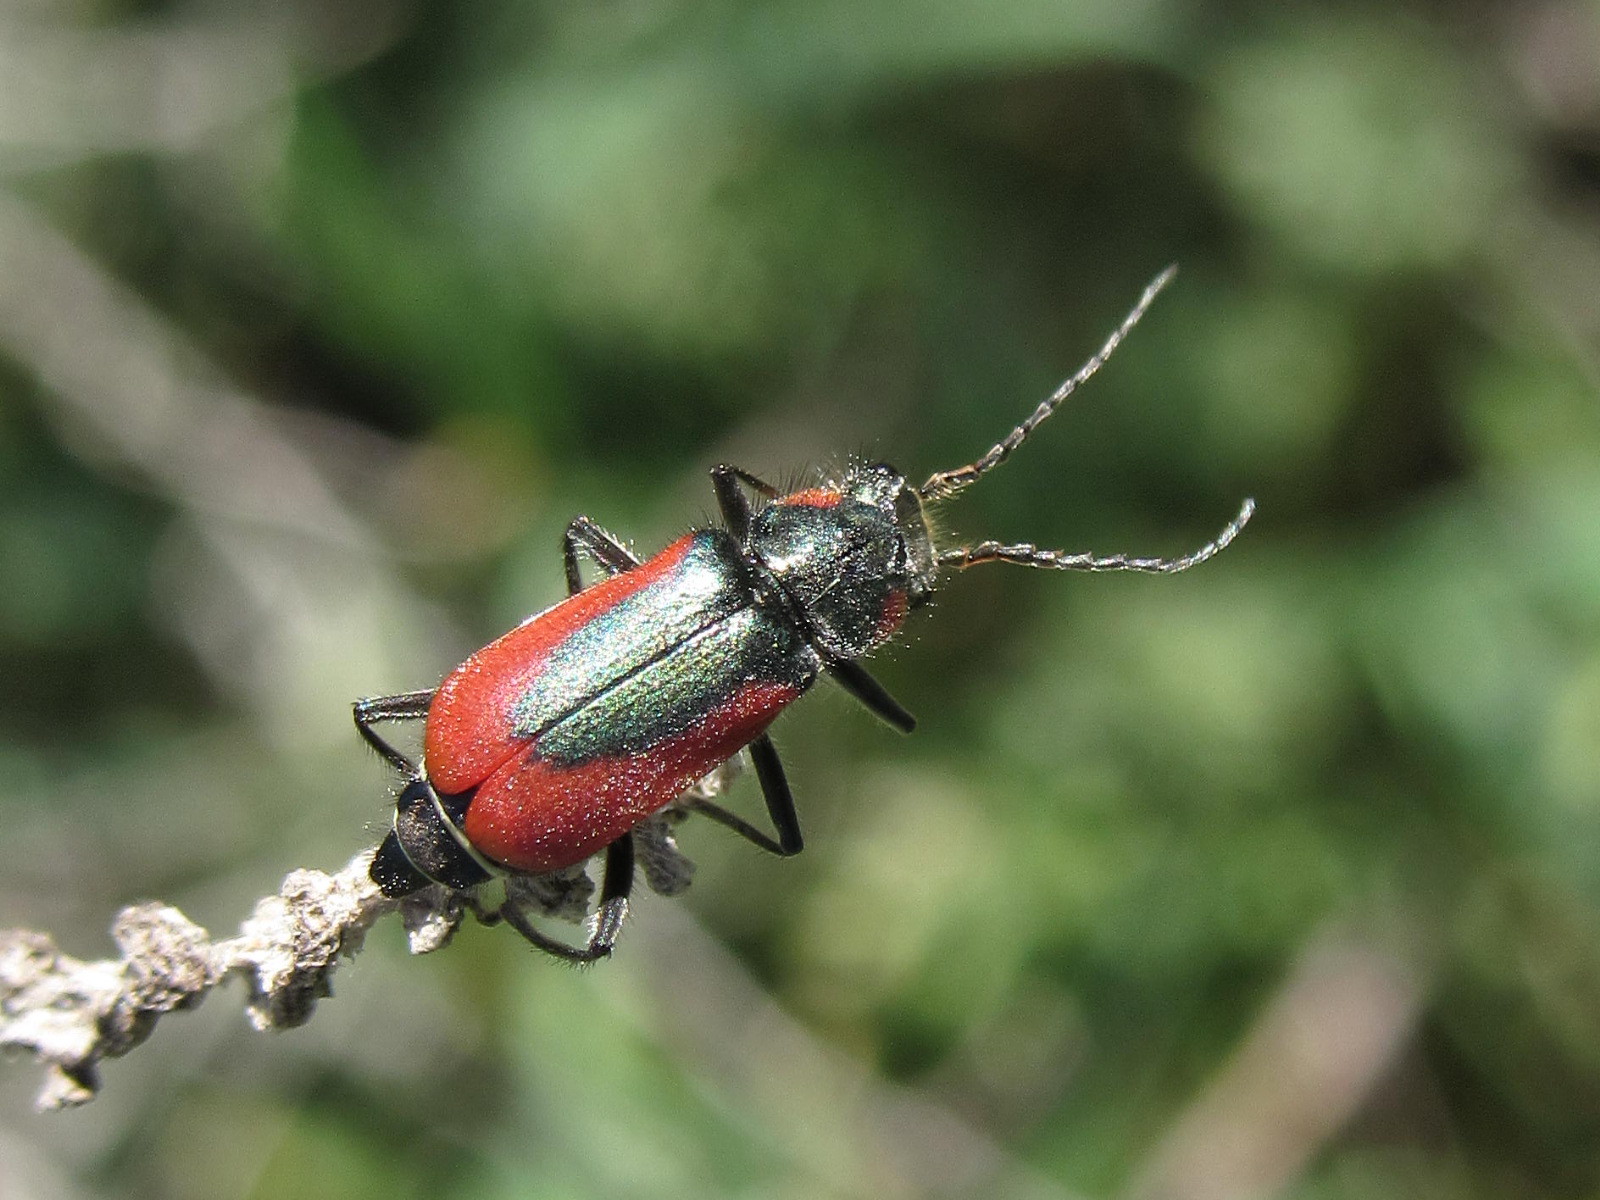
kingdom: Animalia
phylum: Arthropoda
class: Insecta
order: Coleoptera
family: Melyridae
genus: Malachius
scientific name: Malachius aeneus
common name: Scarlet malachite beetle
